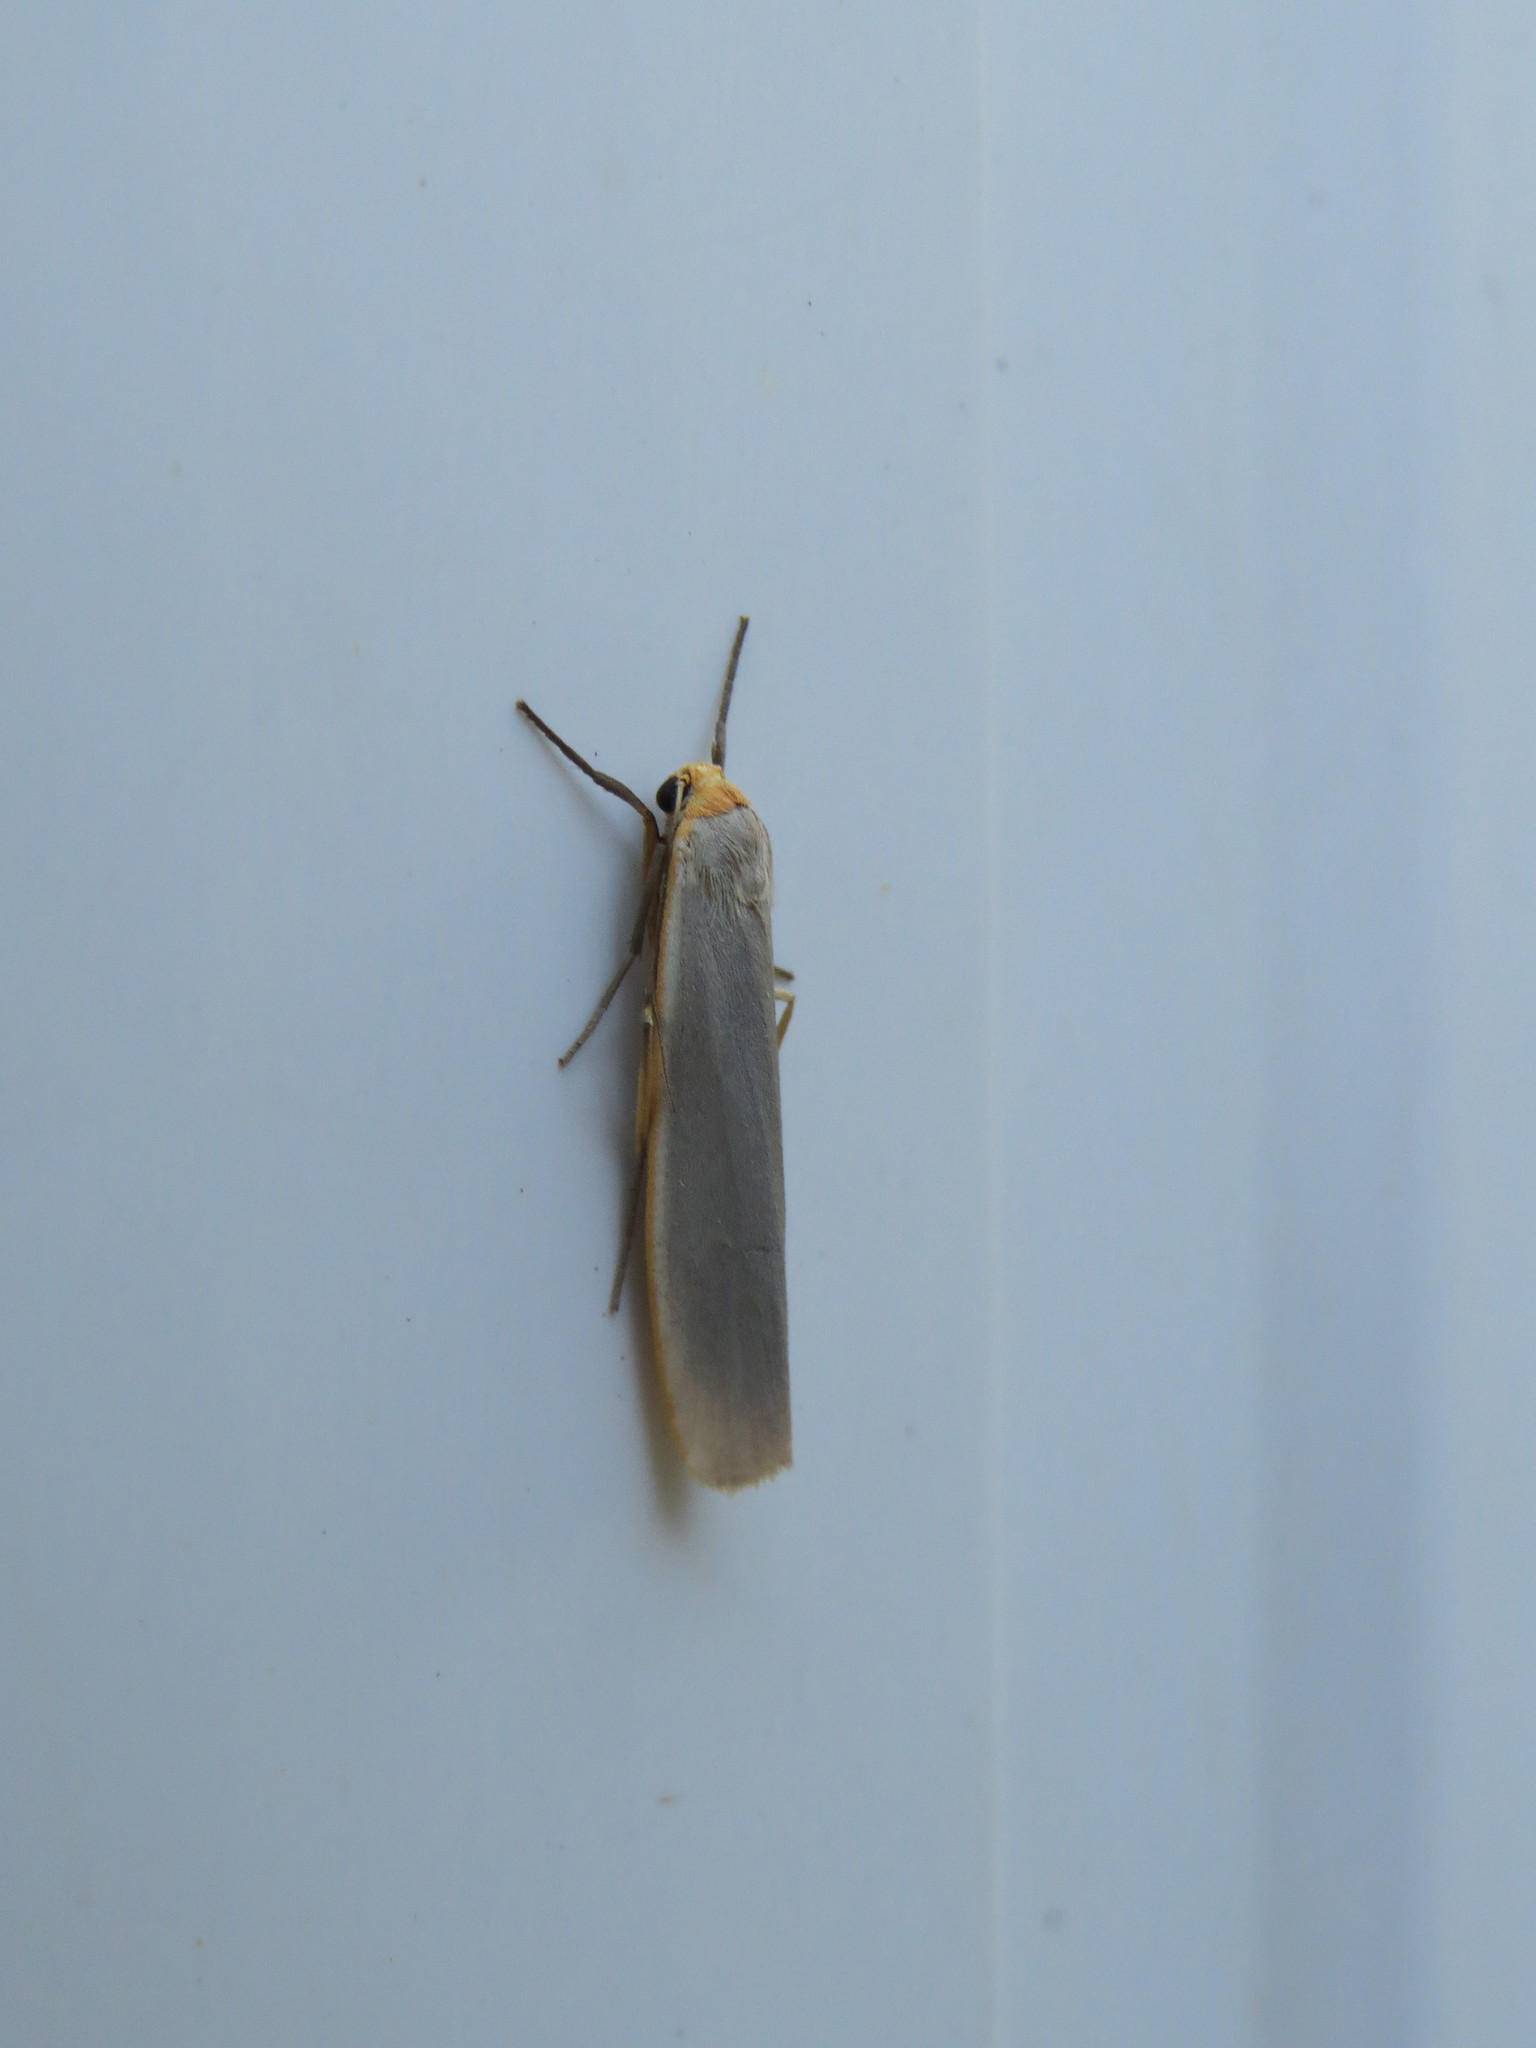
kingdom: Animalia
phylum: Arthropoda
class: Insecta
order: Lepidoptera
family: Erebidae
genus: Eilema
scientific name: Eilema caniola
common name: Hoary footman
